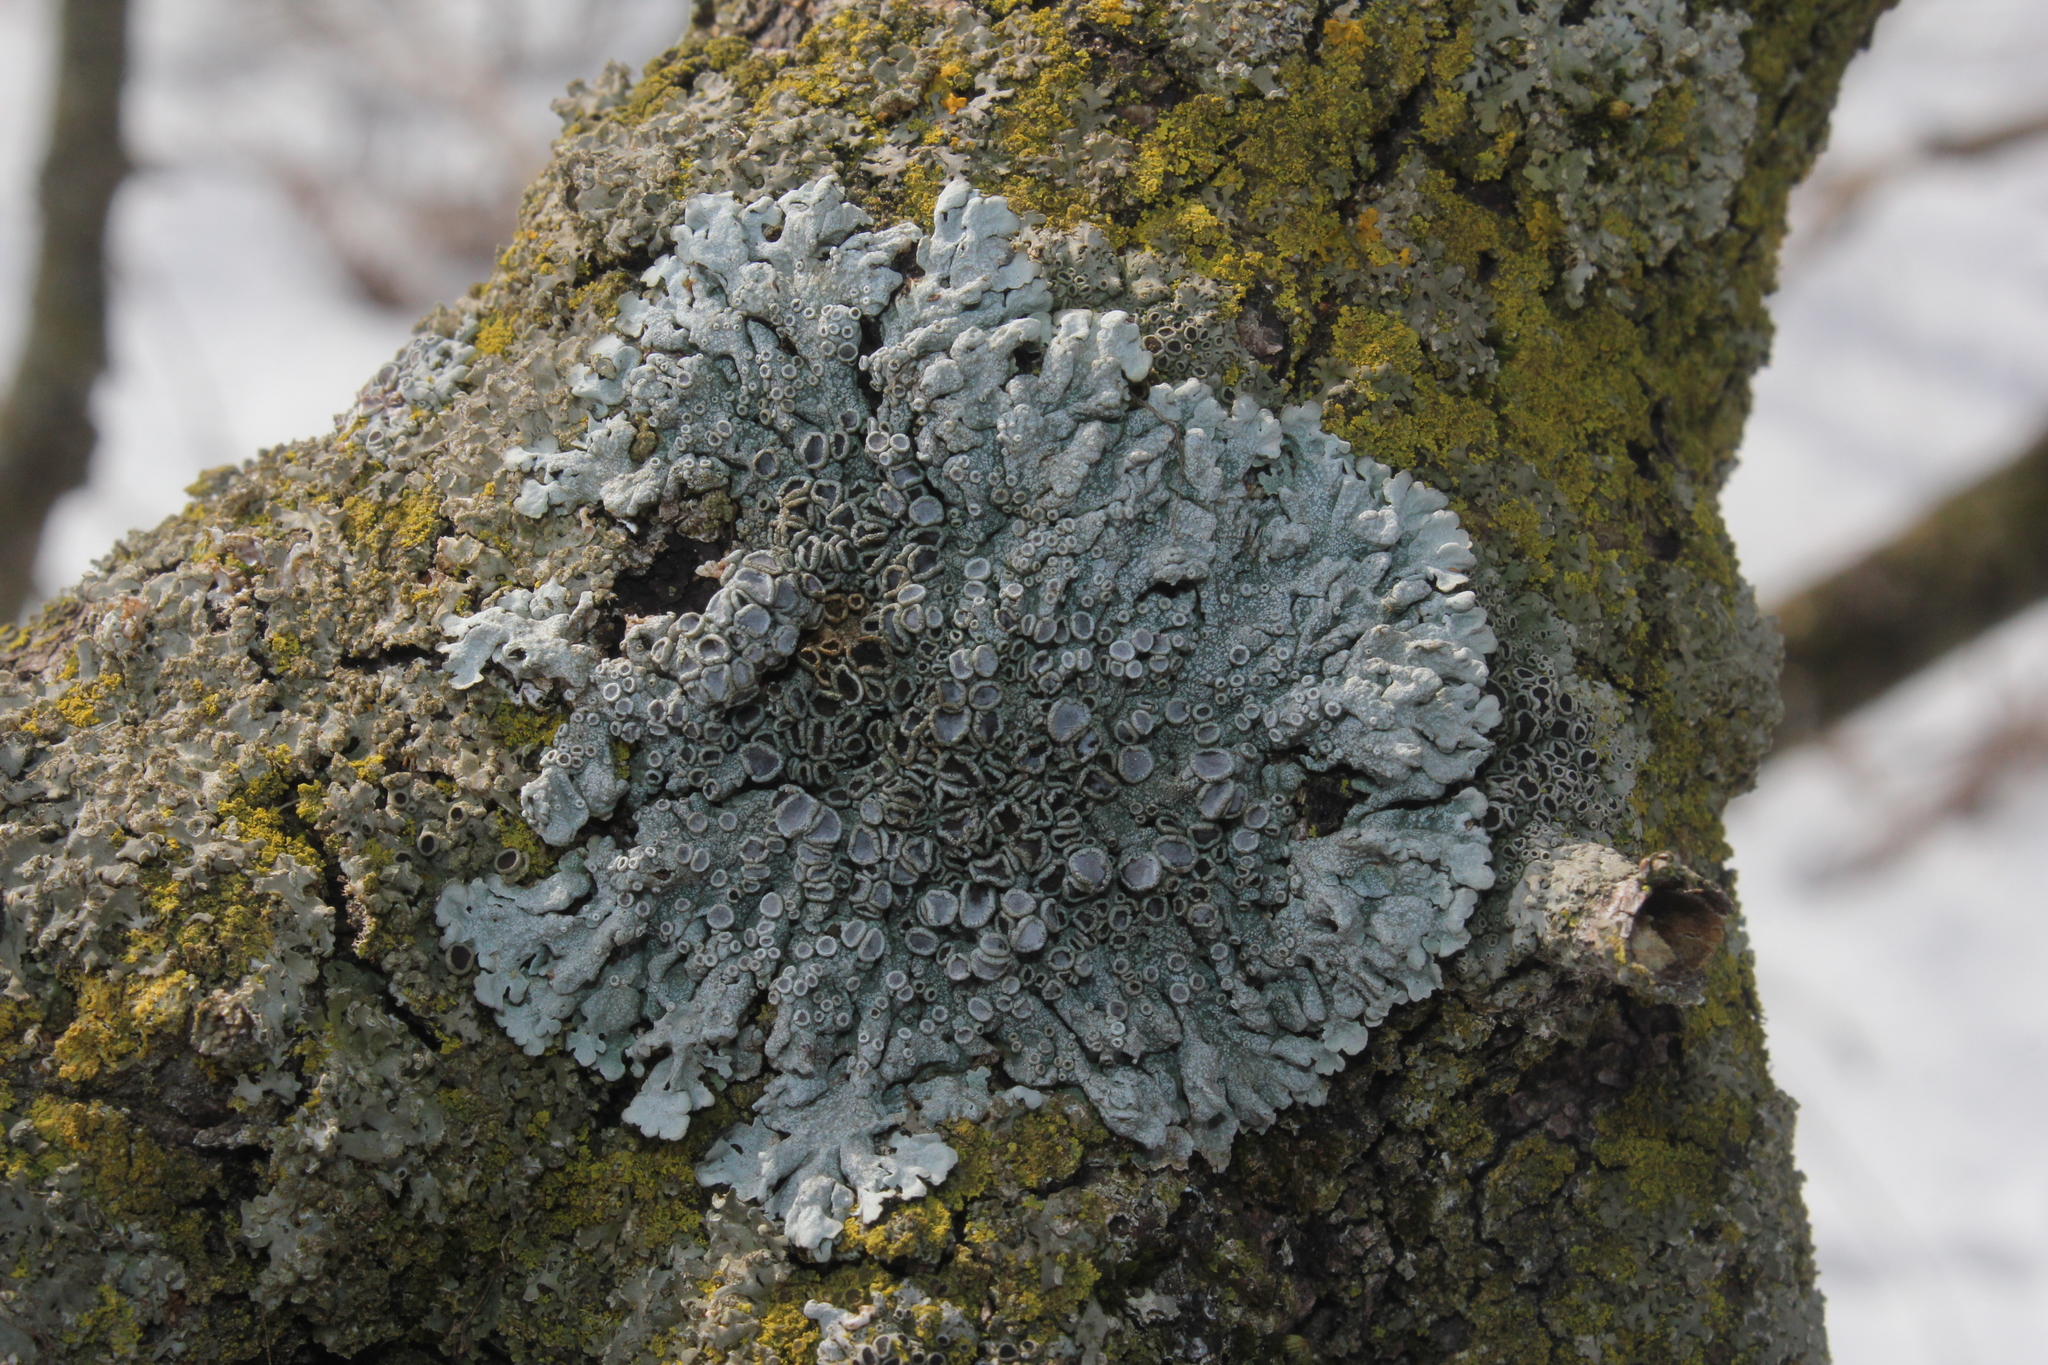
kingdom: Fungi
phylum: Ascomycota
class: Lecanoromycetes
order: Caliciales
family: Physciaceae
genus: Physcia
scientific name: Physcia stellaris
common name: Star rosette lichen
